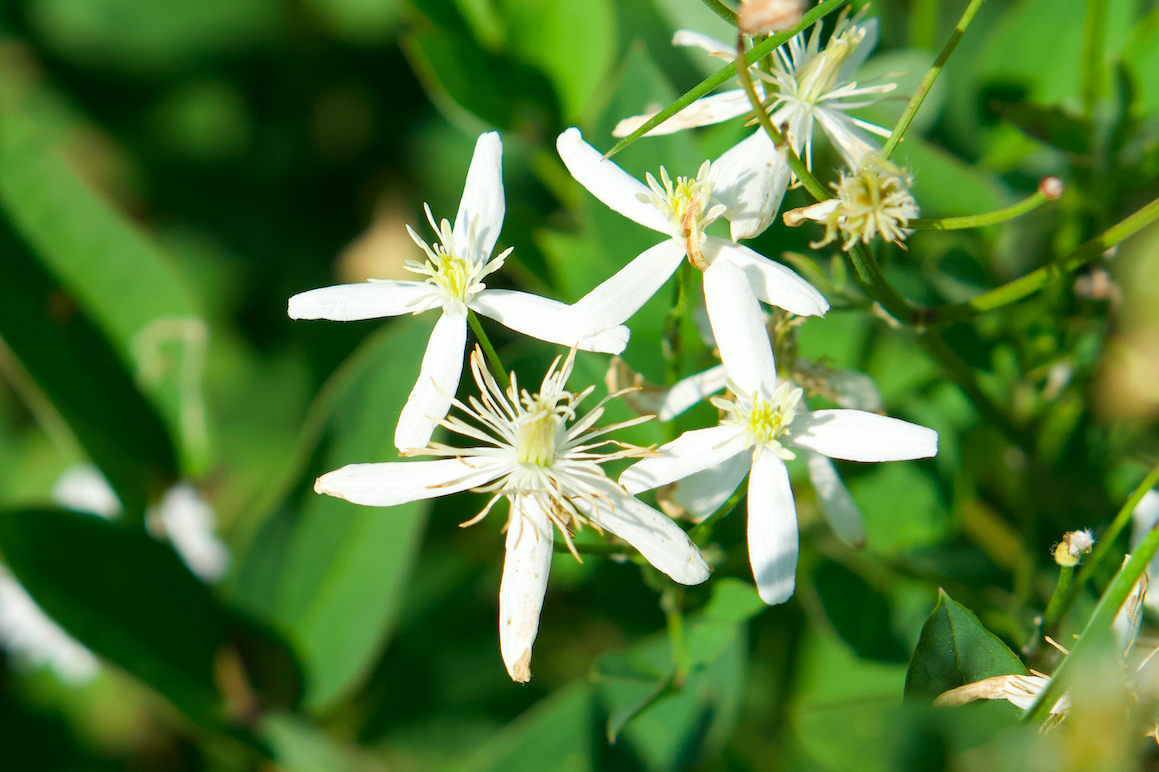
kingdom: Plantae
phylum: Tracheophyta
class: Magnoliopsida
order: Ranunculales
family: Ranunculaceae
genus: Clematis
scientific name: Clematis recta
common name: Ground clematis
